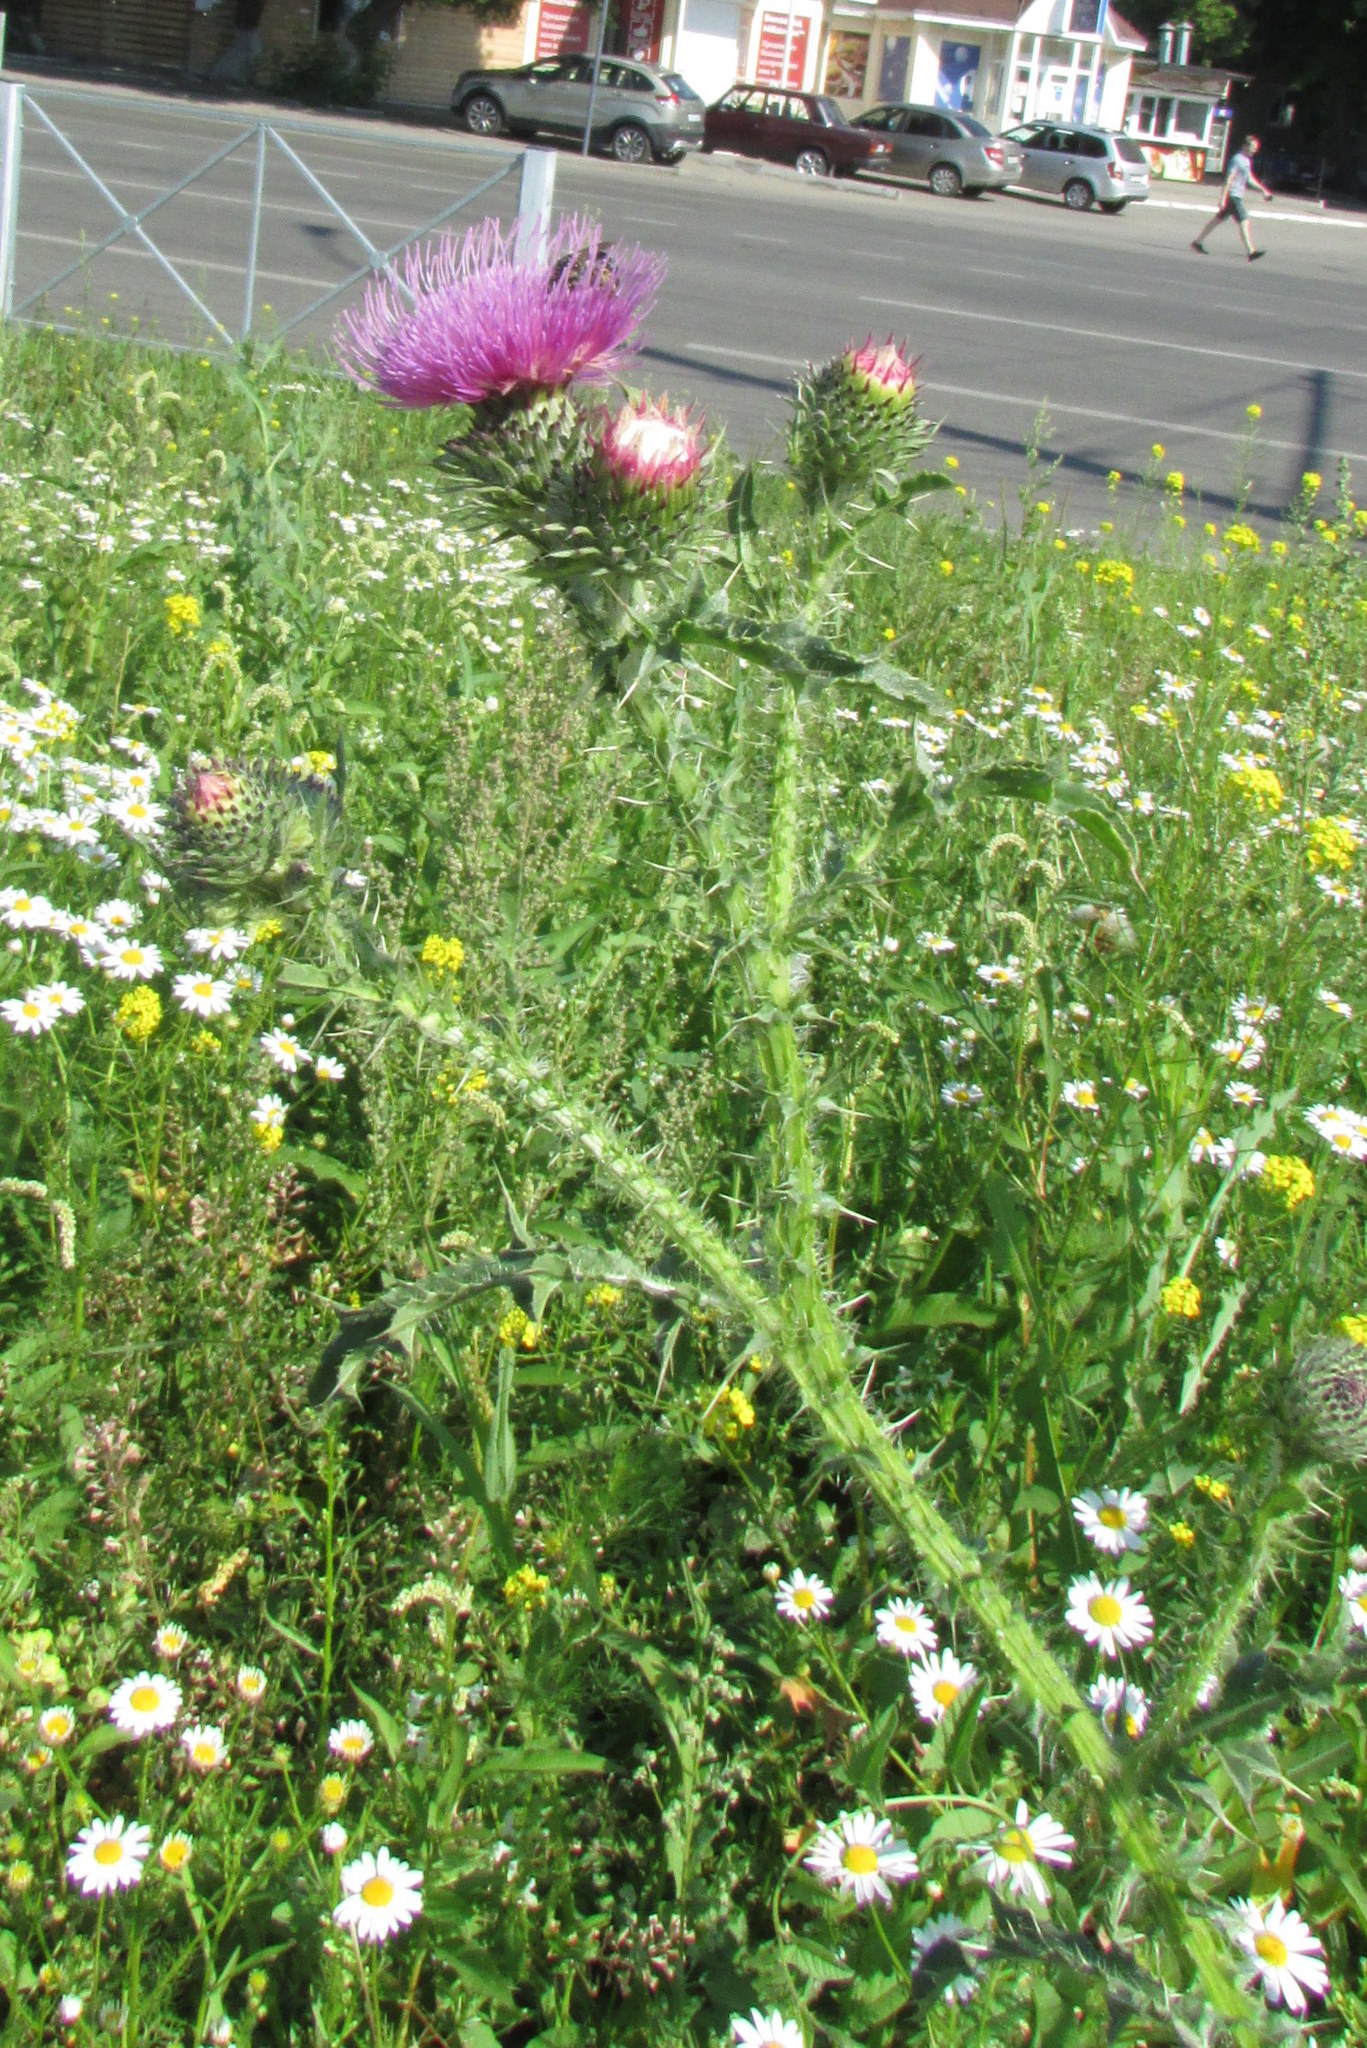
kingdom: Plantae
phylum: Tracheophyta
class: Magnoliopsida
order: Asterales
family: Asteraceae
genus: Carduus
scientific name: Carduus crispus
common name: Welted thistle
